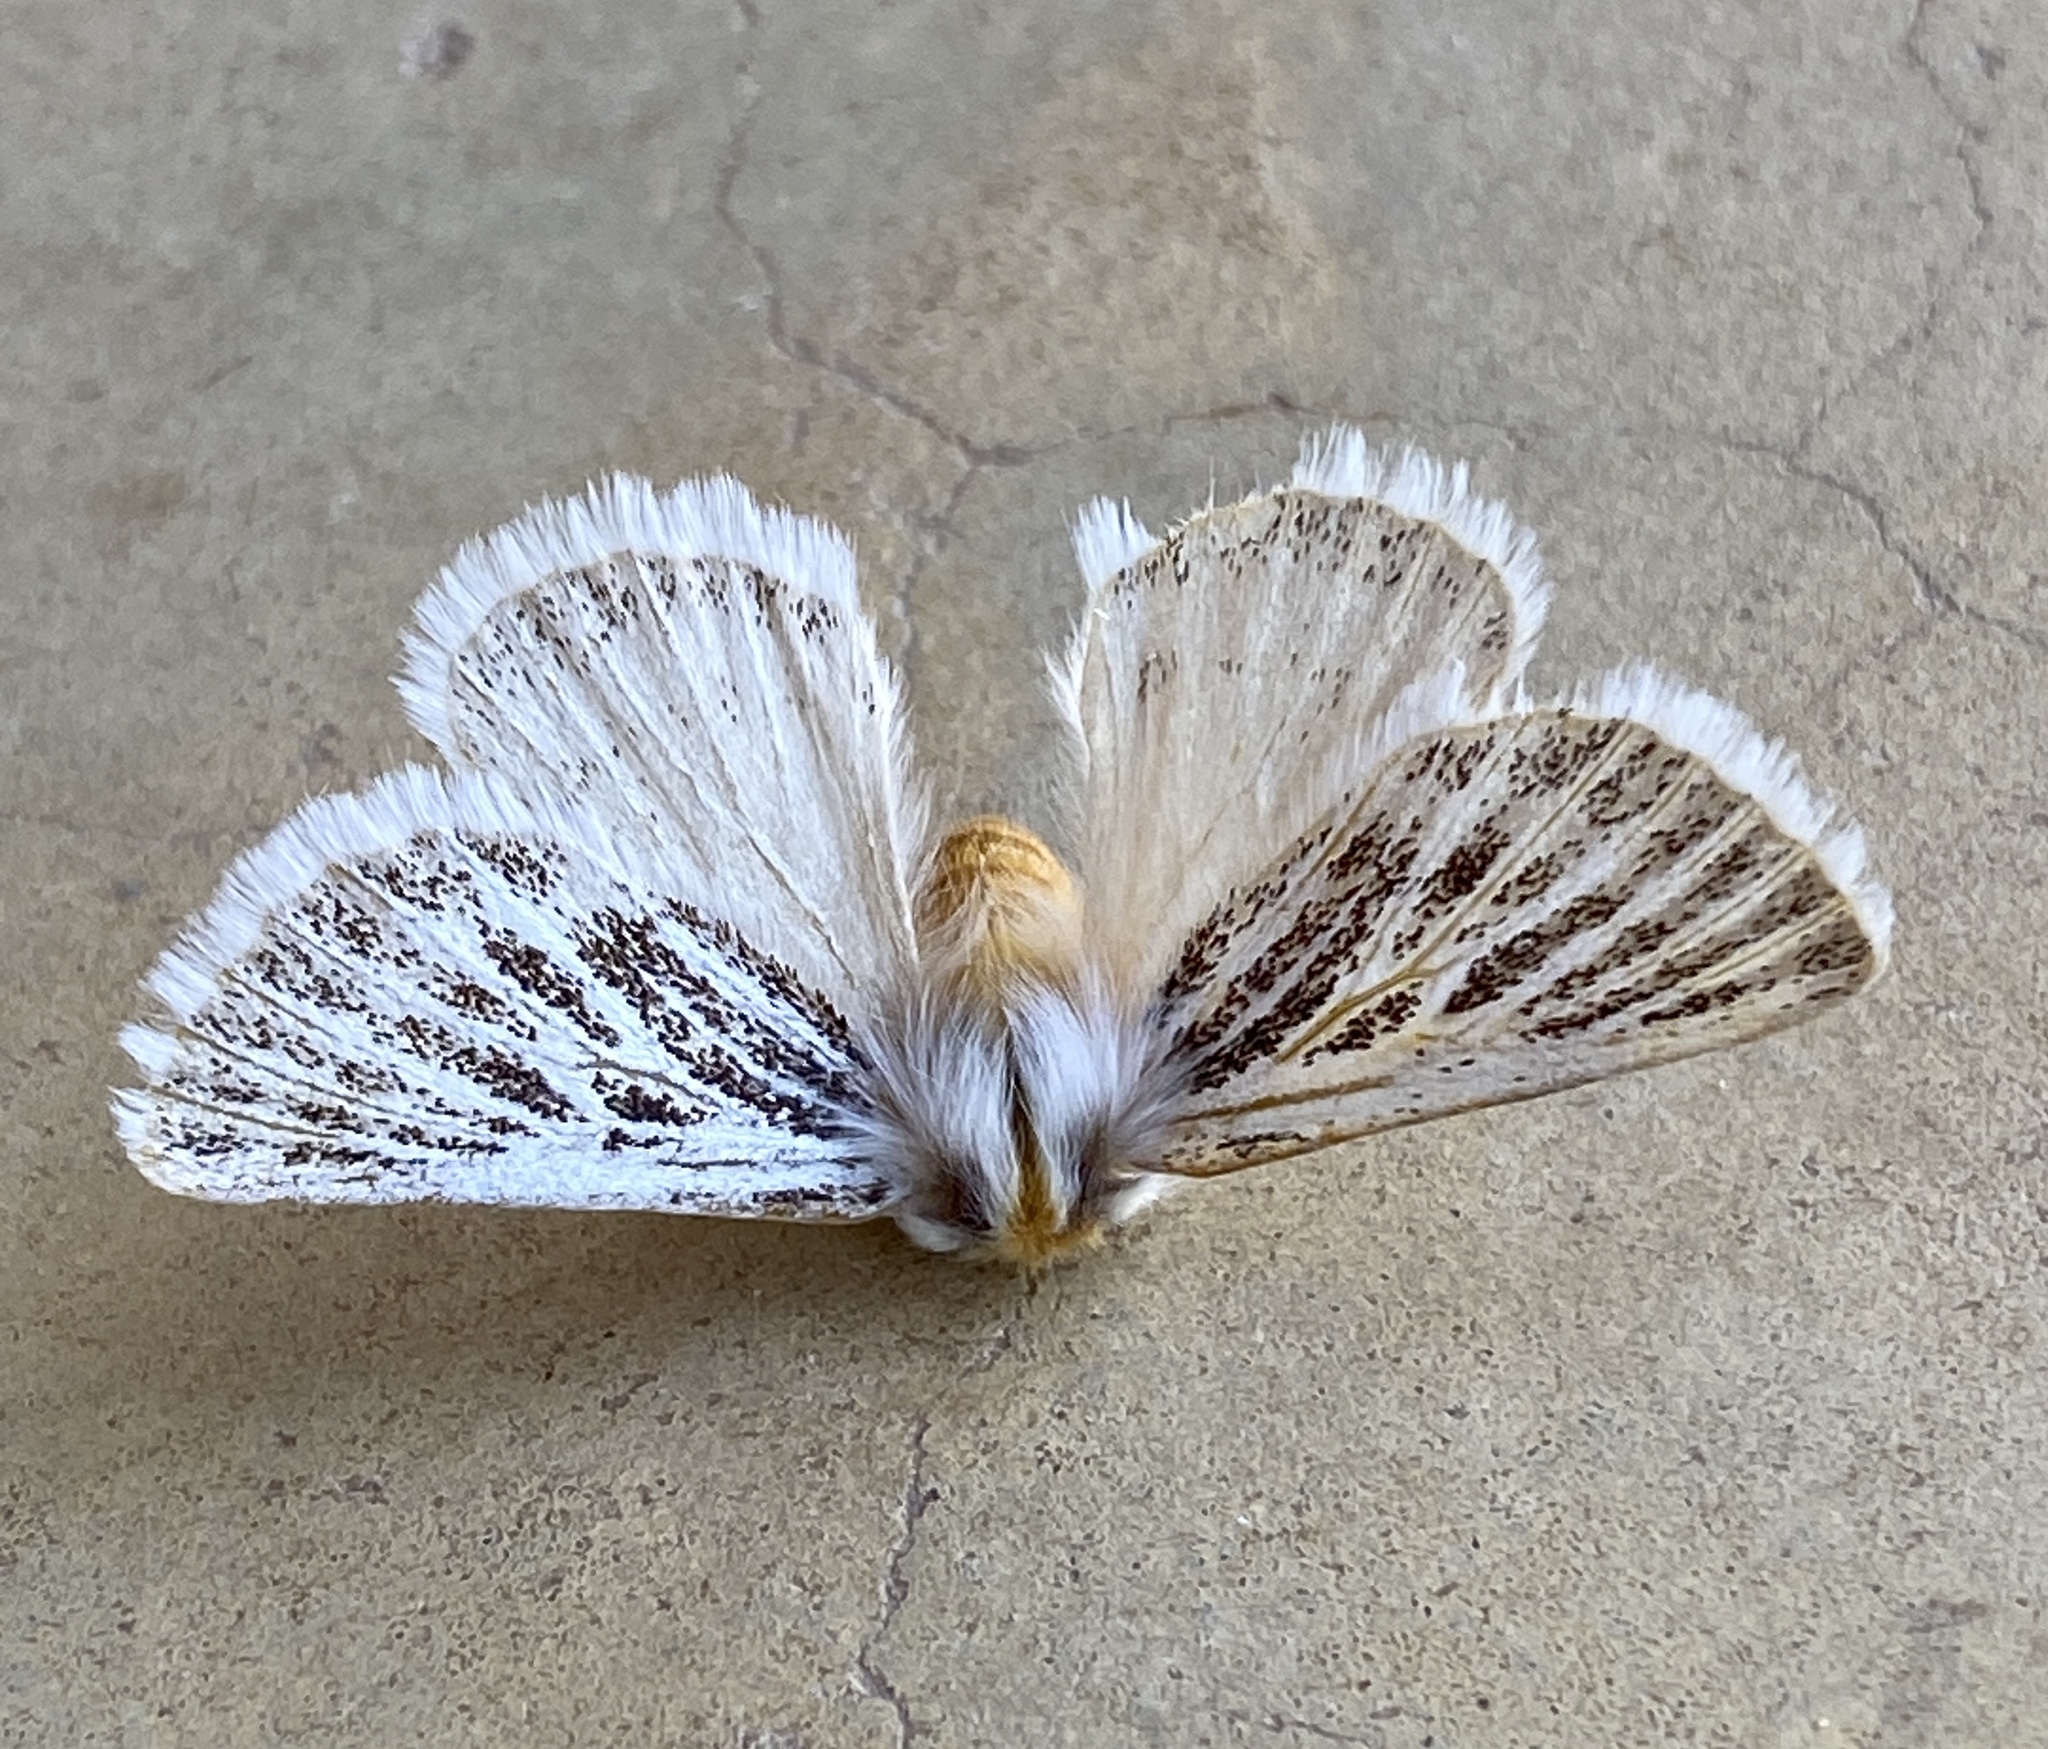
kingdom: Animalia
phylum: Arthropoda
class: Insecta
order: Lepidoptera
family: Eupterotidae
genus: Rhabdosia
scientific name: Rhabdosia vaninia
